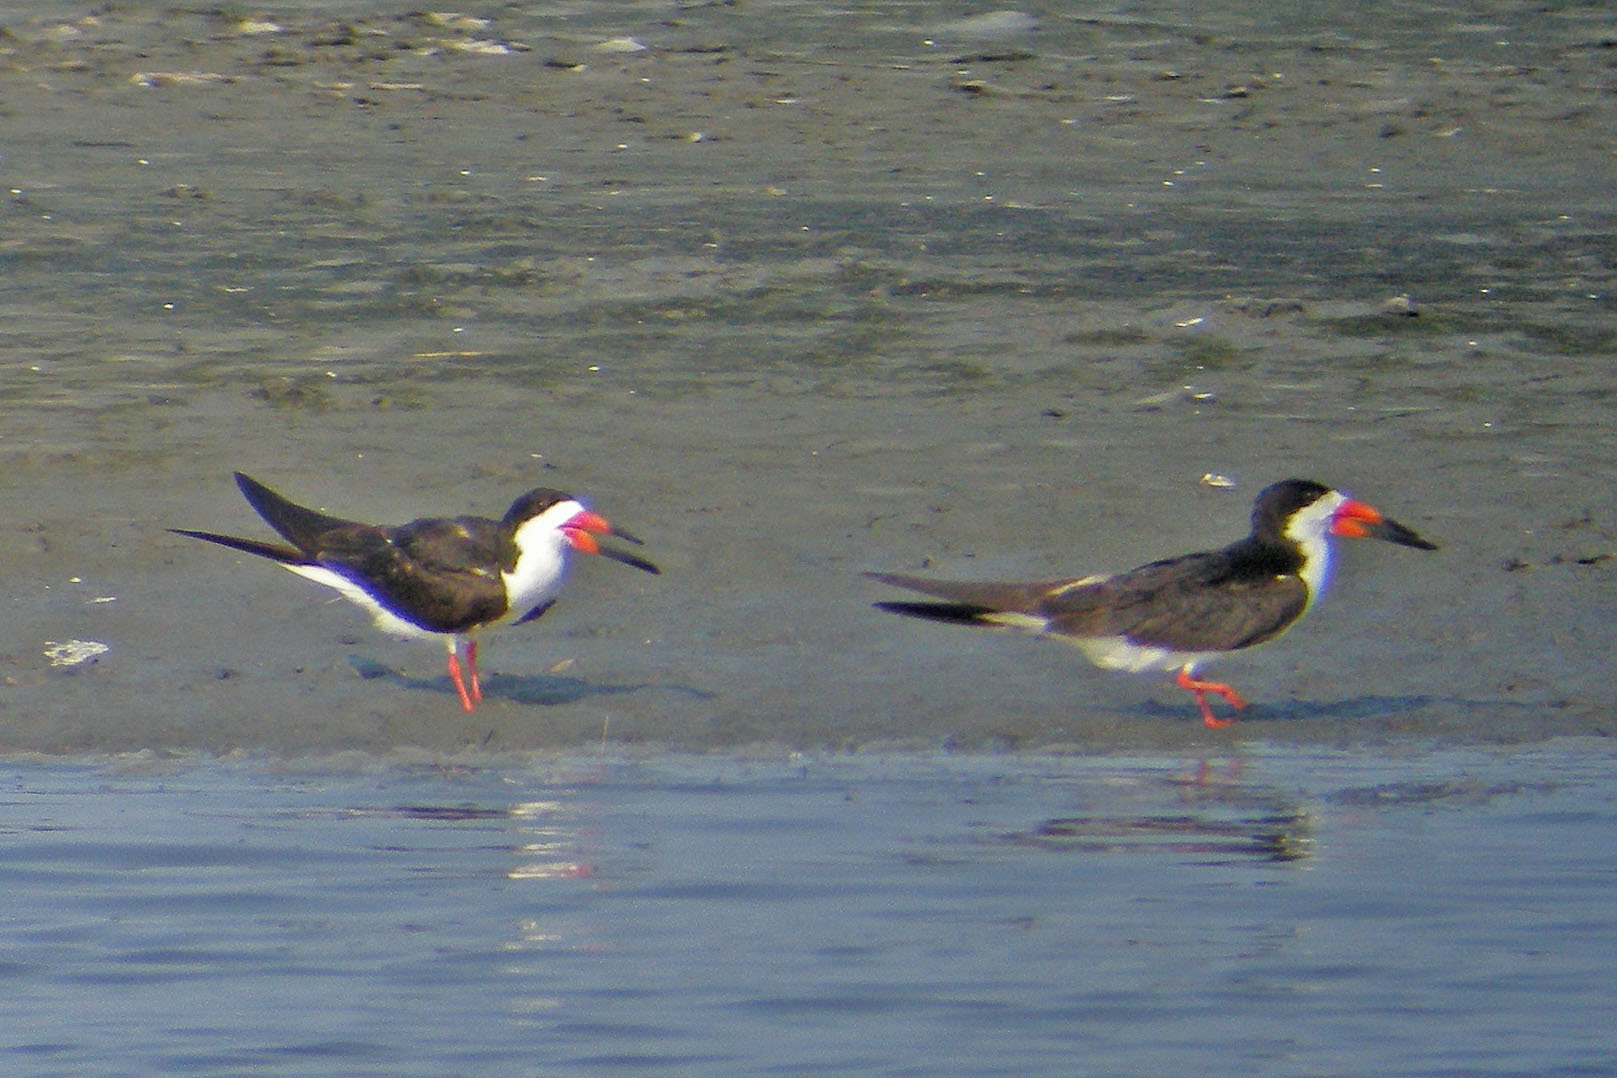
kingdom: Animalia
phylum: Chordata
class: Aves
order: Charadriiformes
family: Laridae
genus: Rynchops
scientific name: Rynchops niger
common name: Black skimmer
